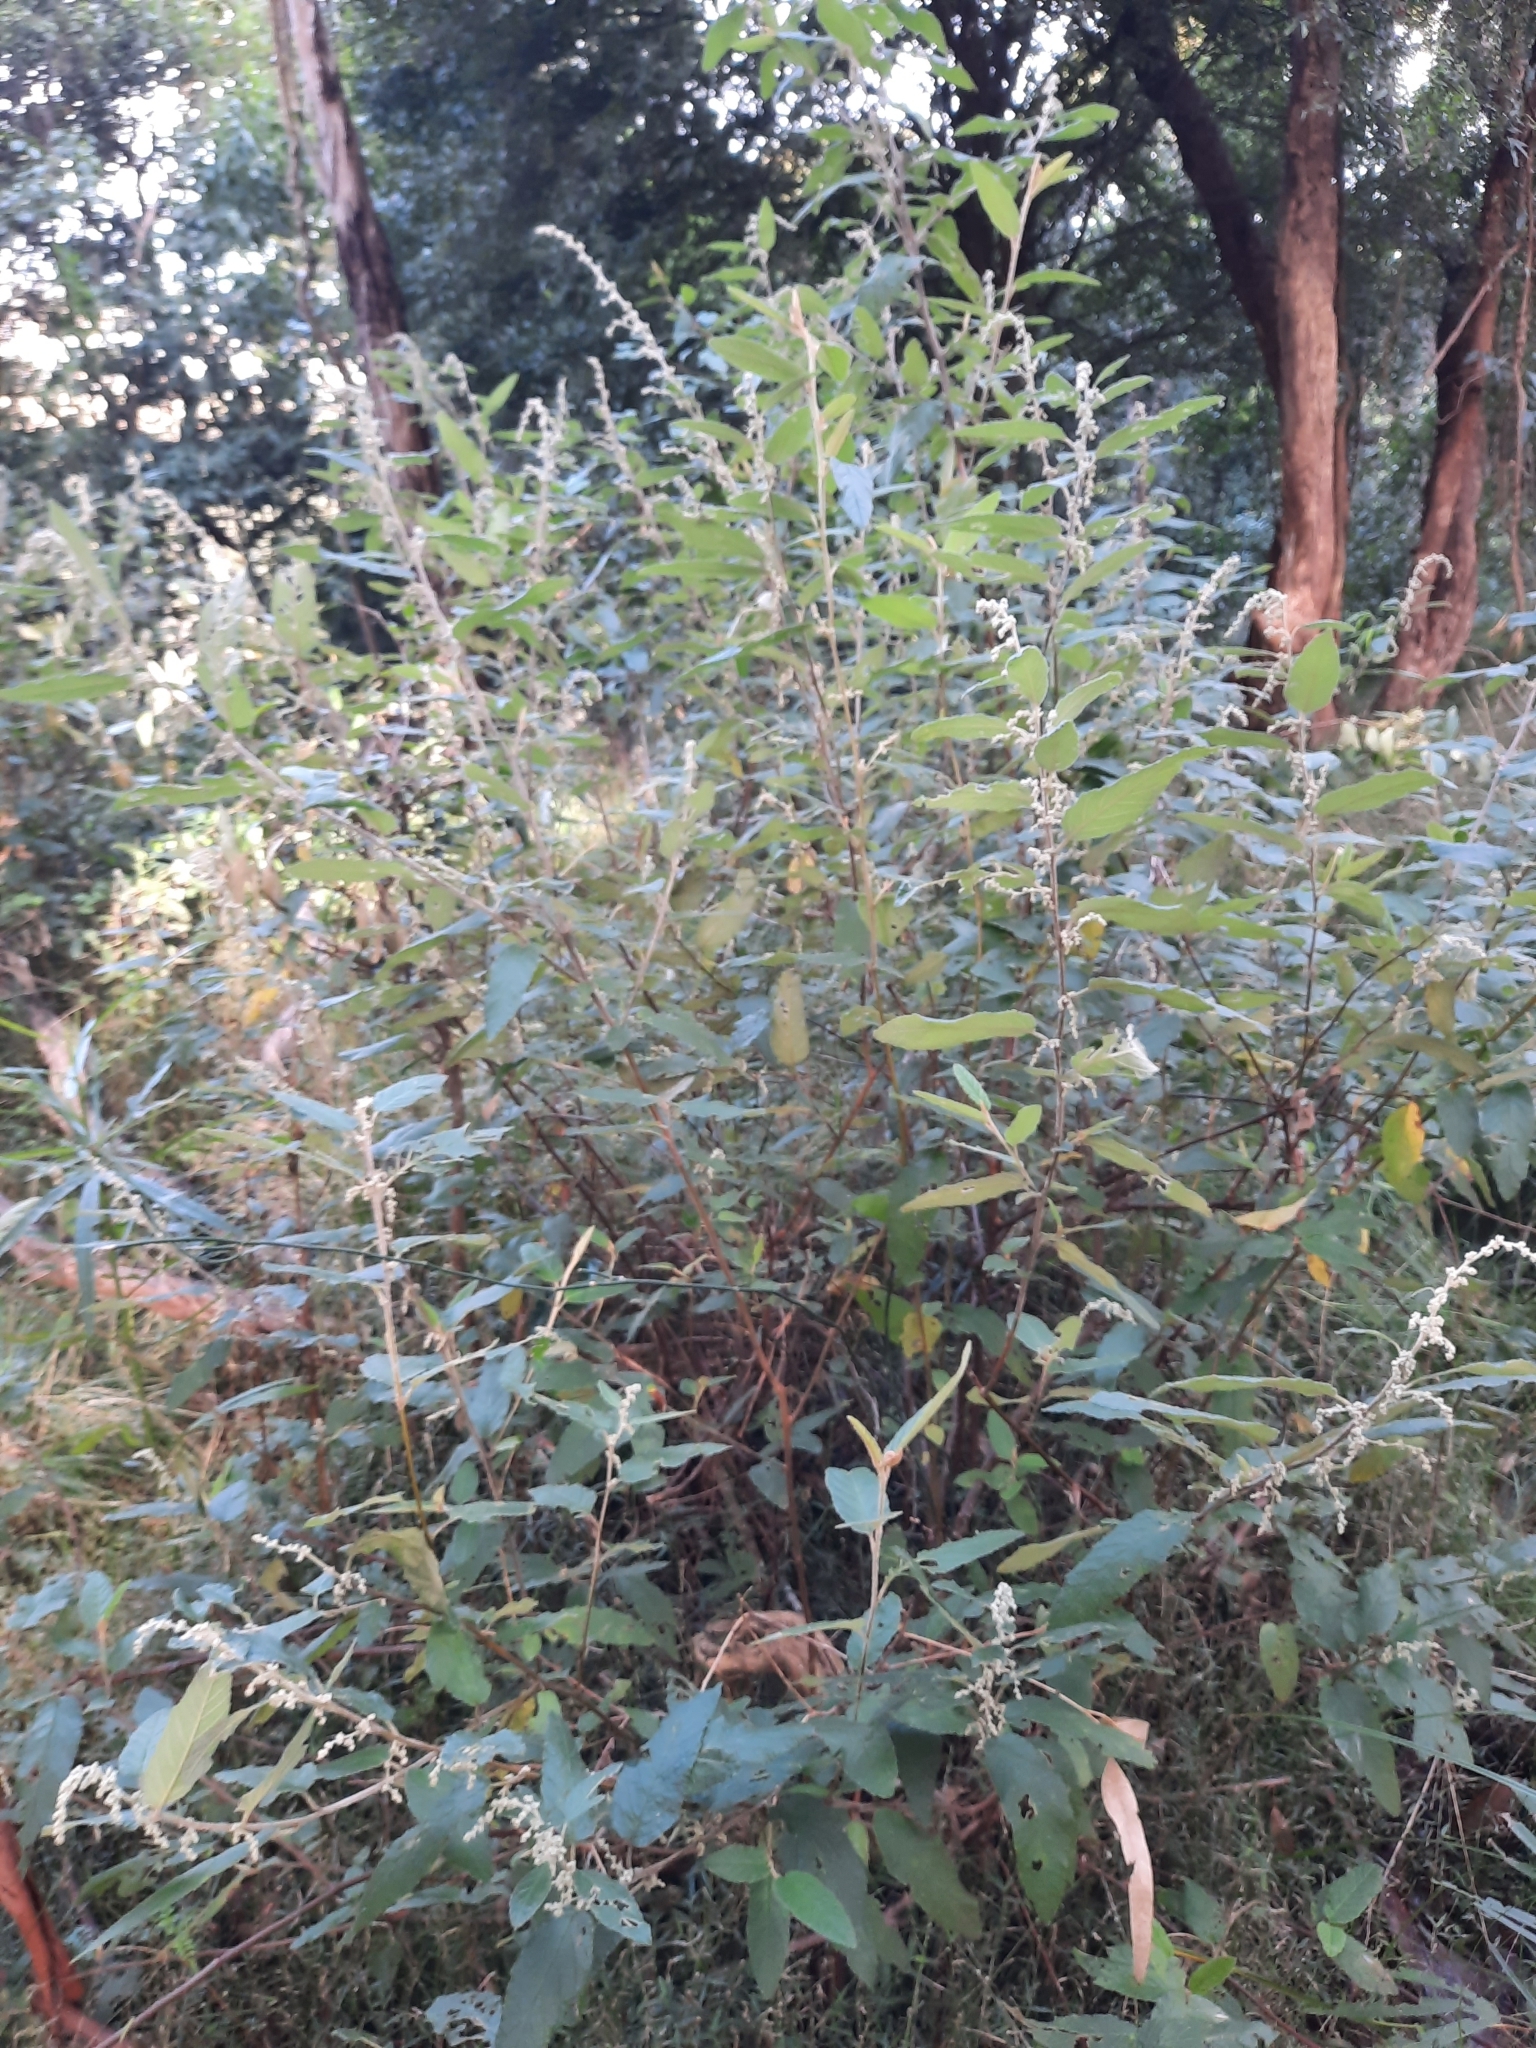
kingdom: Plantae
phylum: Tracheophyta
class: Magnoliopsida
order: Rosales
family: Rhamnaceae
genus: Pomaderris
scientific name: Pomaderris aspera
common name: Hazel pomaderris
